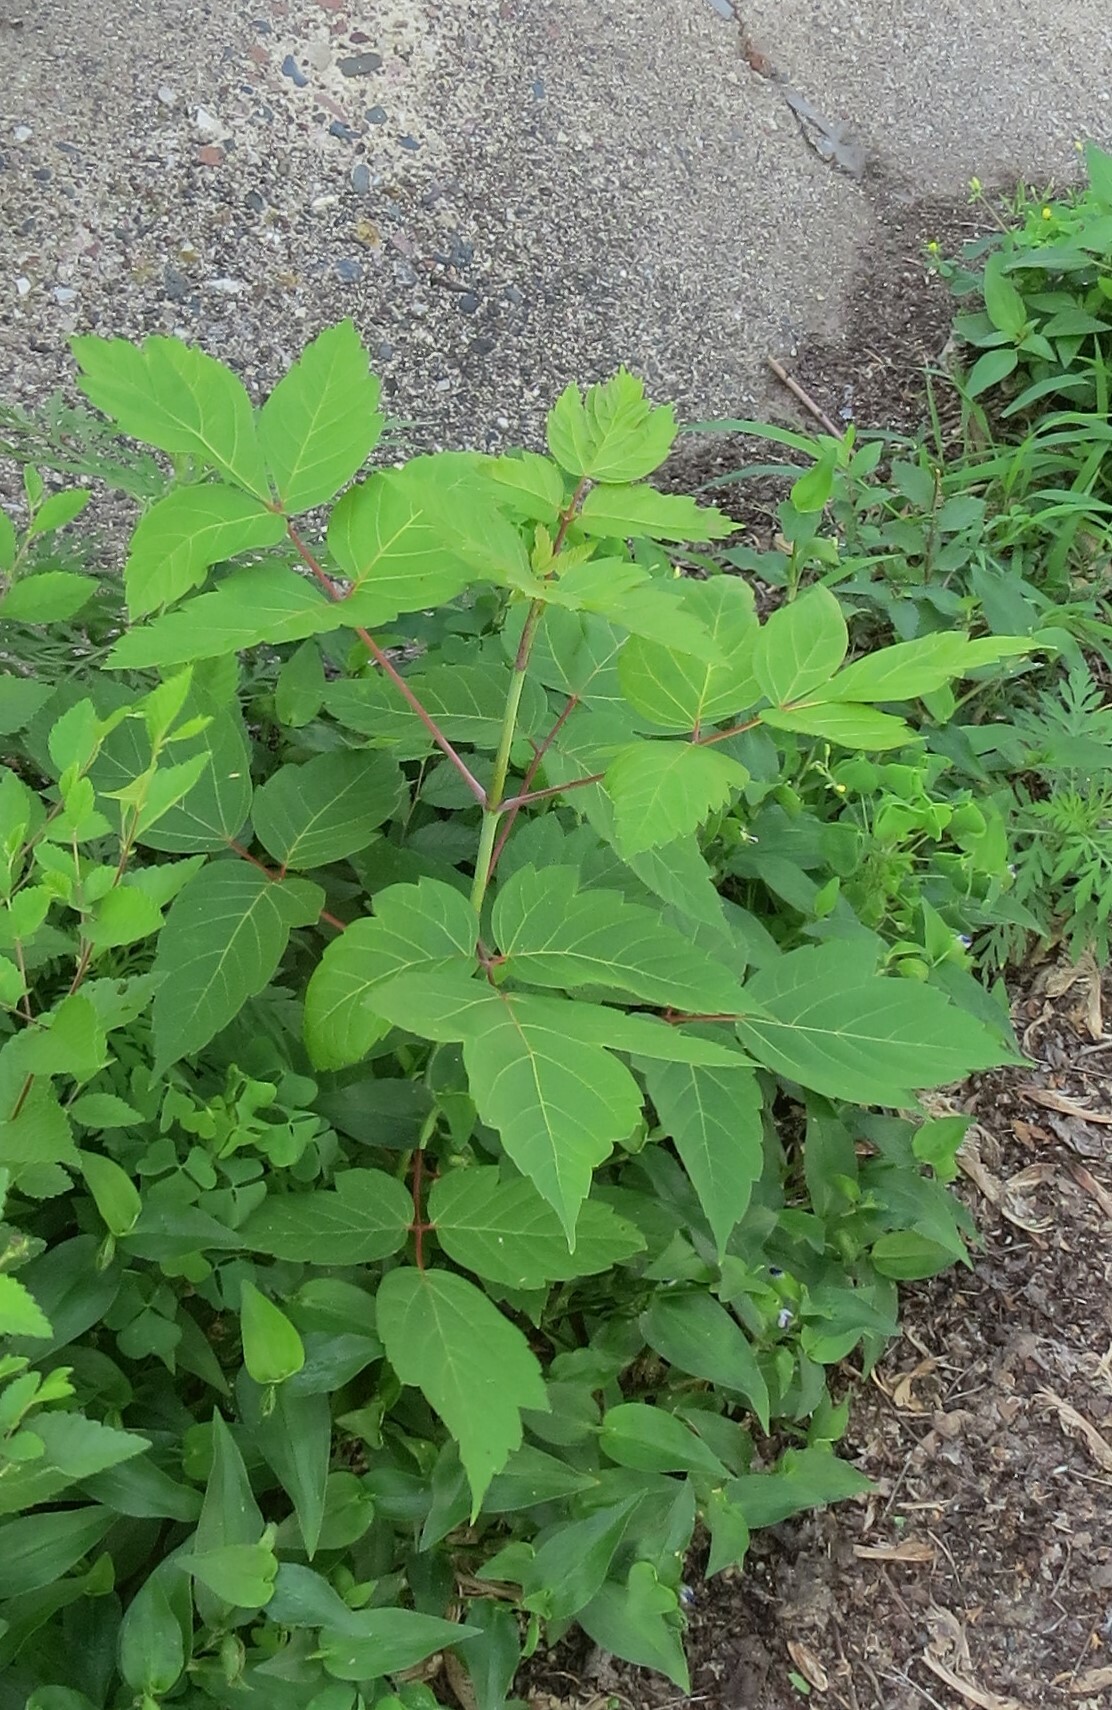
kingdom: Plantae
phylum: Tracheophyta
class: Magnoliopsida
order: Sapindales
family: Sapindaceae
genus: Acer
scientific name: Acer negundo
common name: Ashleaf maple
